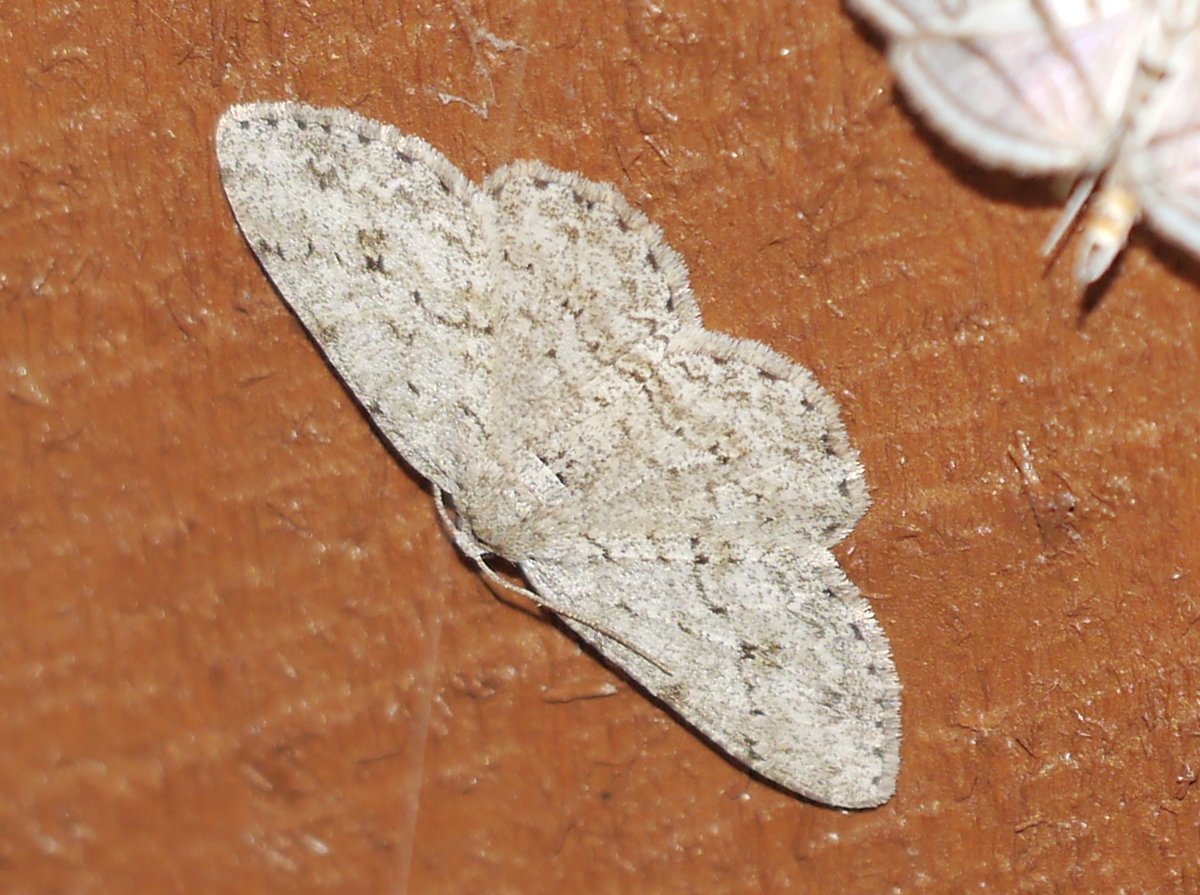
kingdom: Animalia
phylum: Arthropoda
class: Insecta
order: Lepidoptera
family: Geometridae
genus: Ectropis
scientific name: Ectropis crepuscularia
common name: Engrailed
